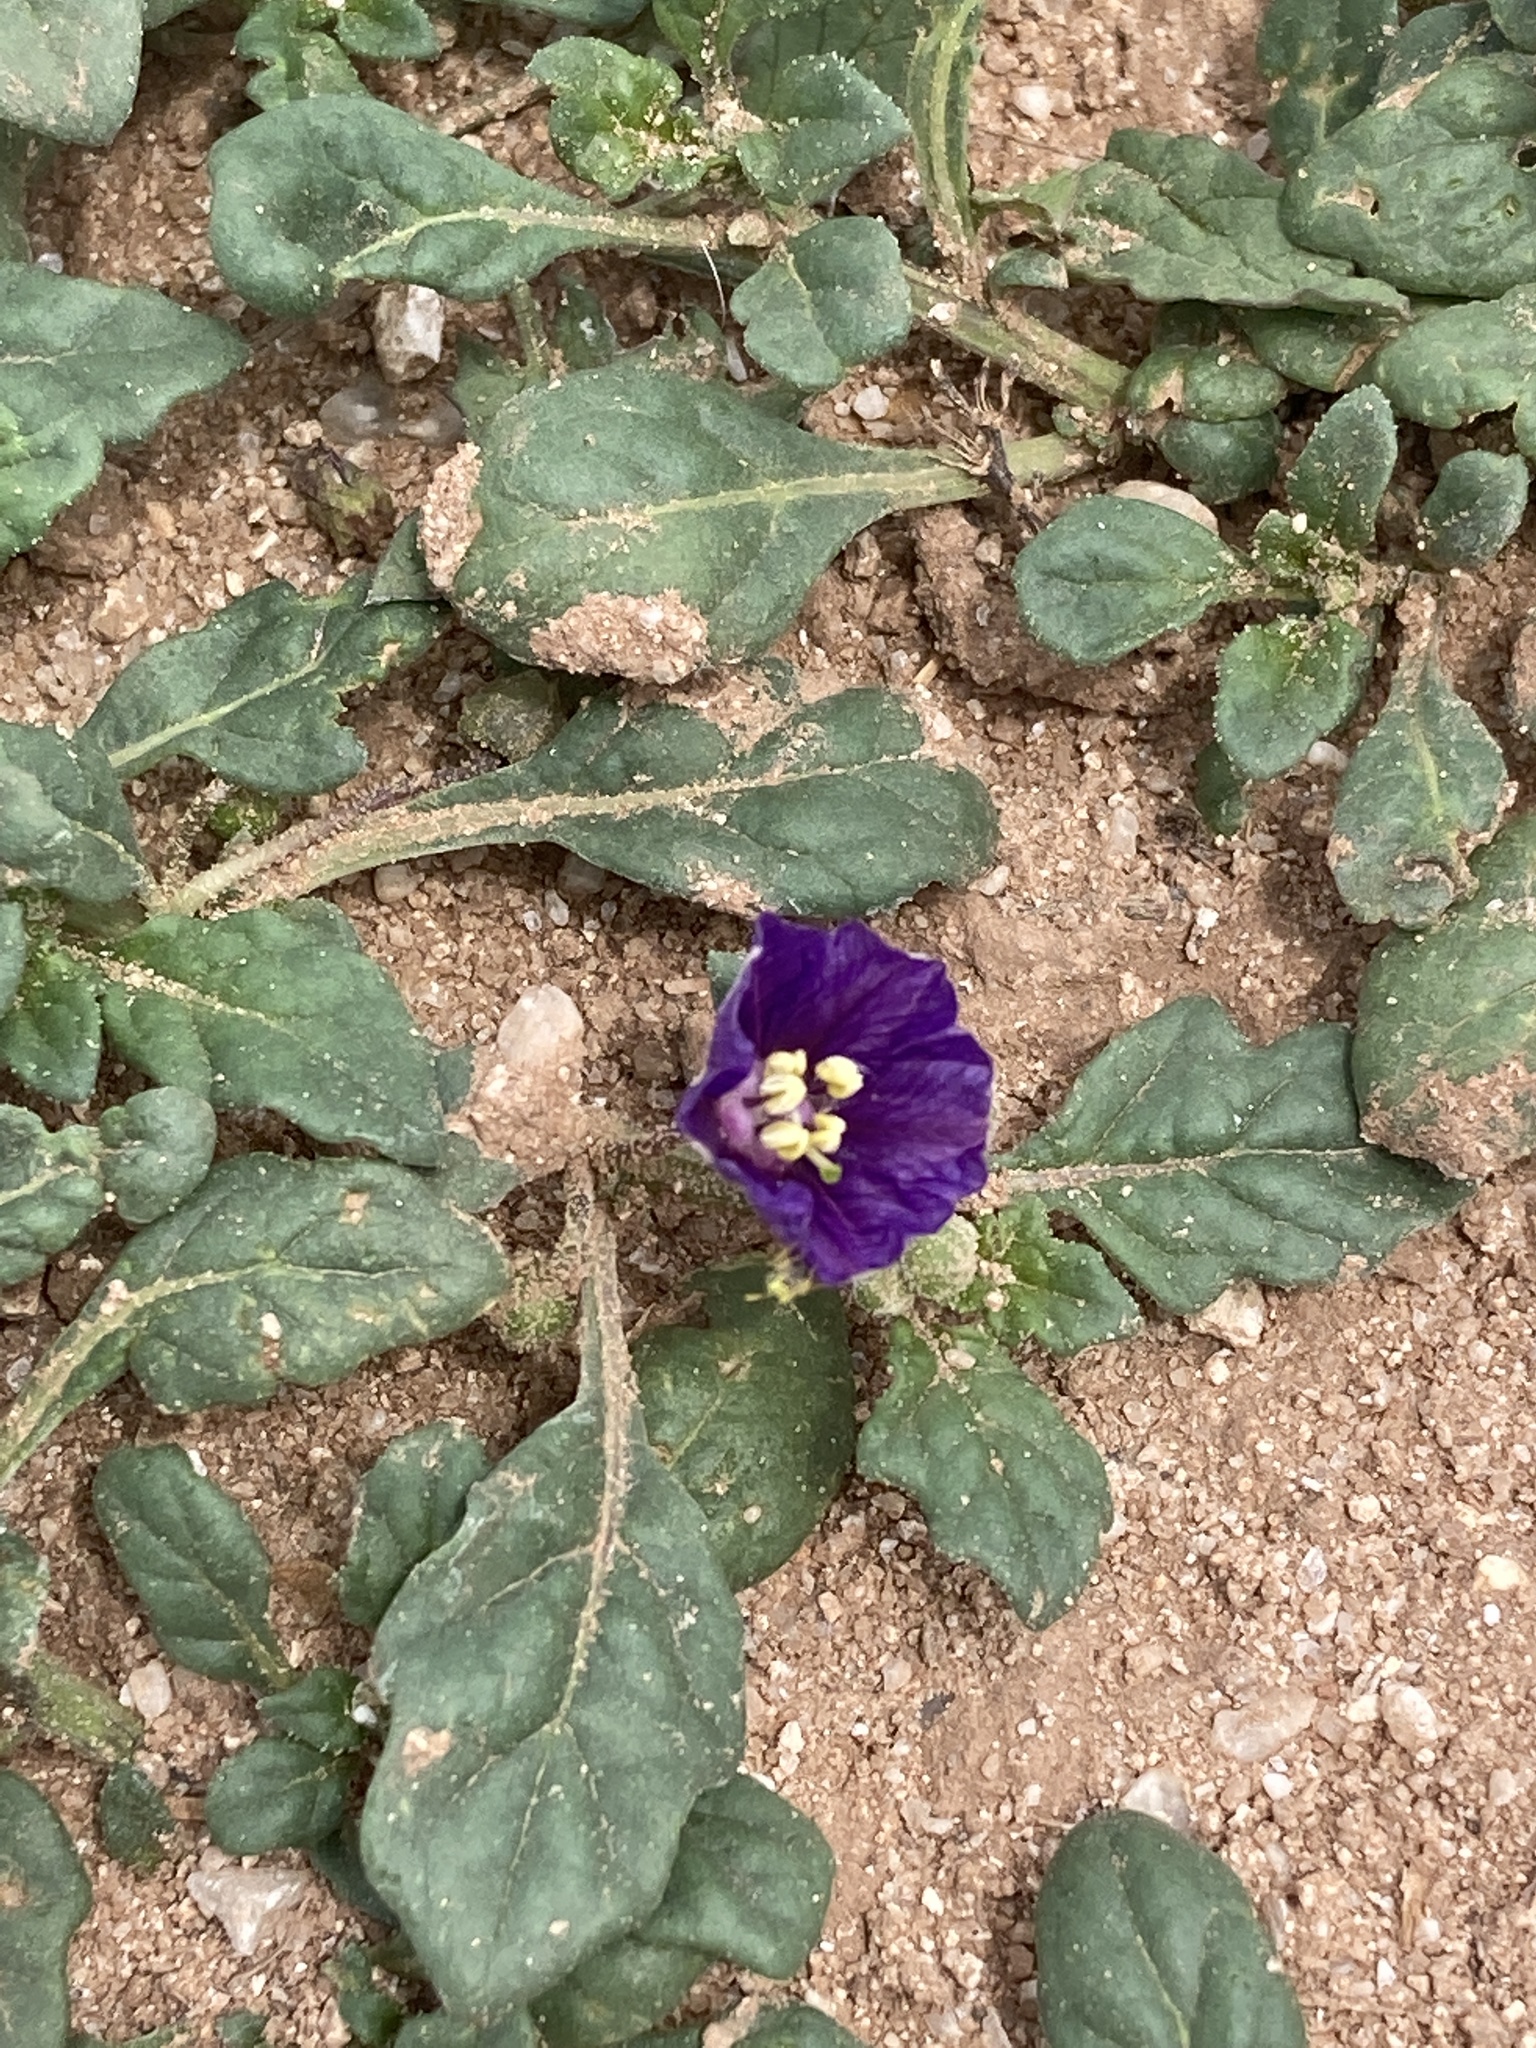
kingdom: Plantae
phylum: Tracheophyta
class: Magnoliopsida
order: Solanales
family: Solanaceae
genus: Quincula
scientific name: Quincula lobata
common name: Purple-ground-cherry
